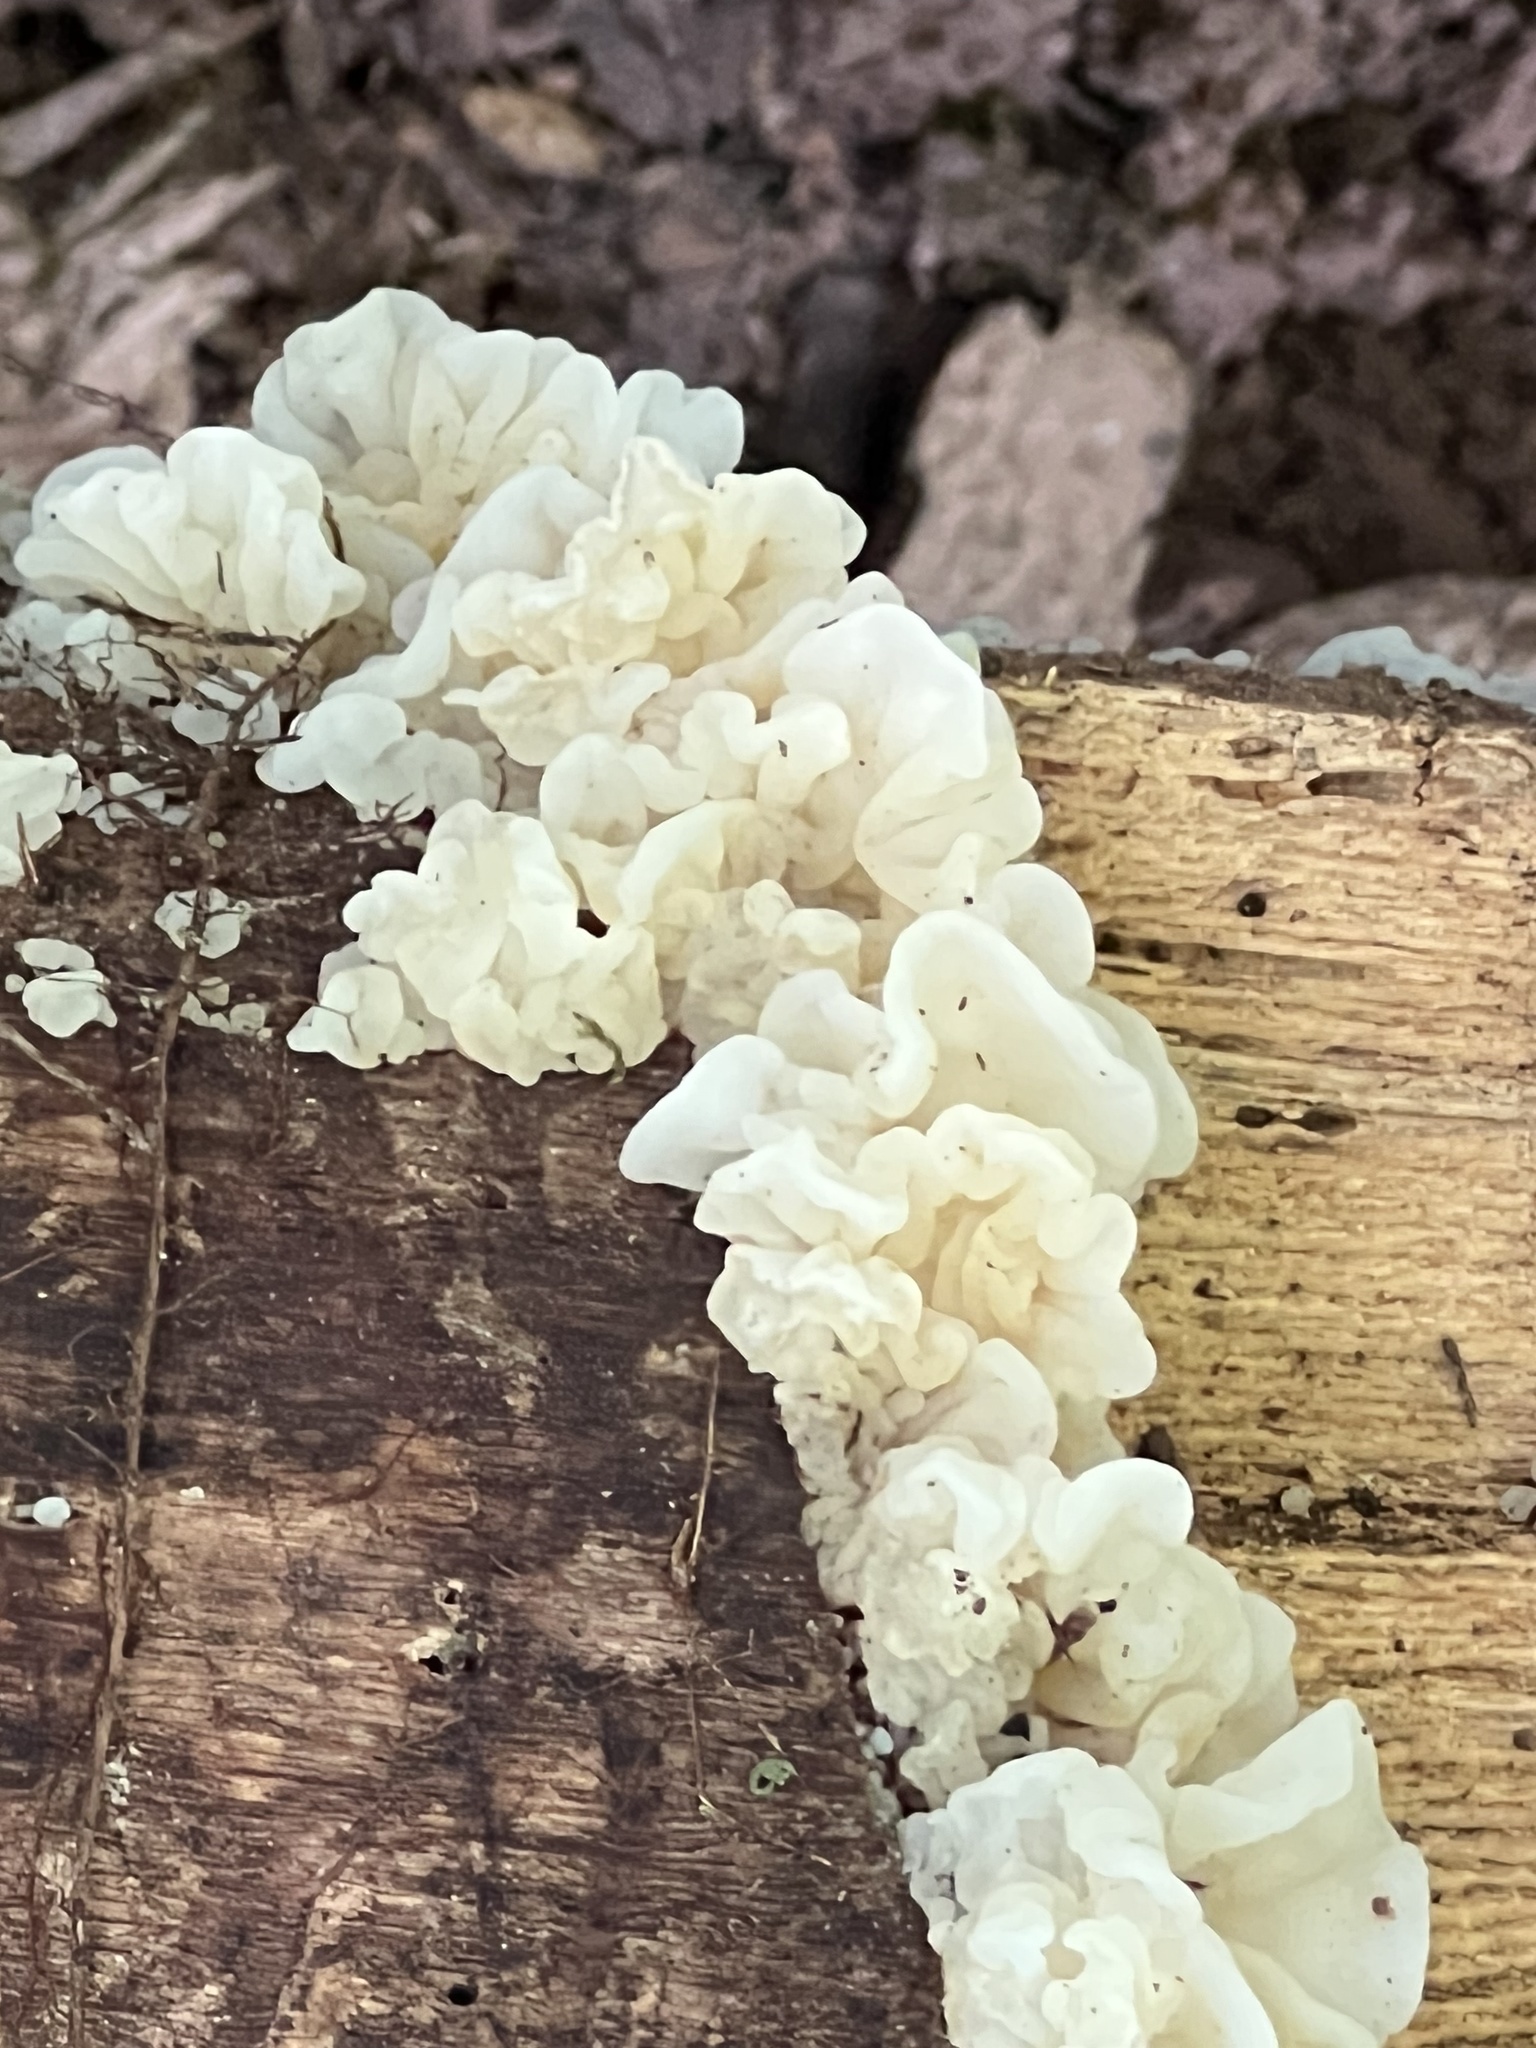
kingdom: Fungi
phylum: Basidiomycota
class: Agaricomycetes
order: Auriculariales
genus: Ductifera
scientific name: Ductifera pululahuana
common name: White jelly fungus
